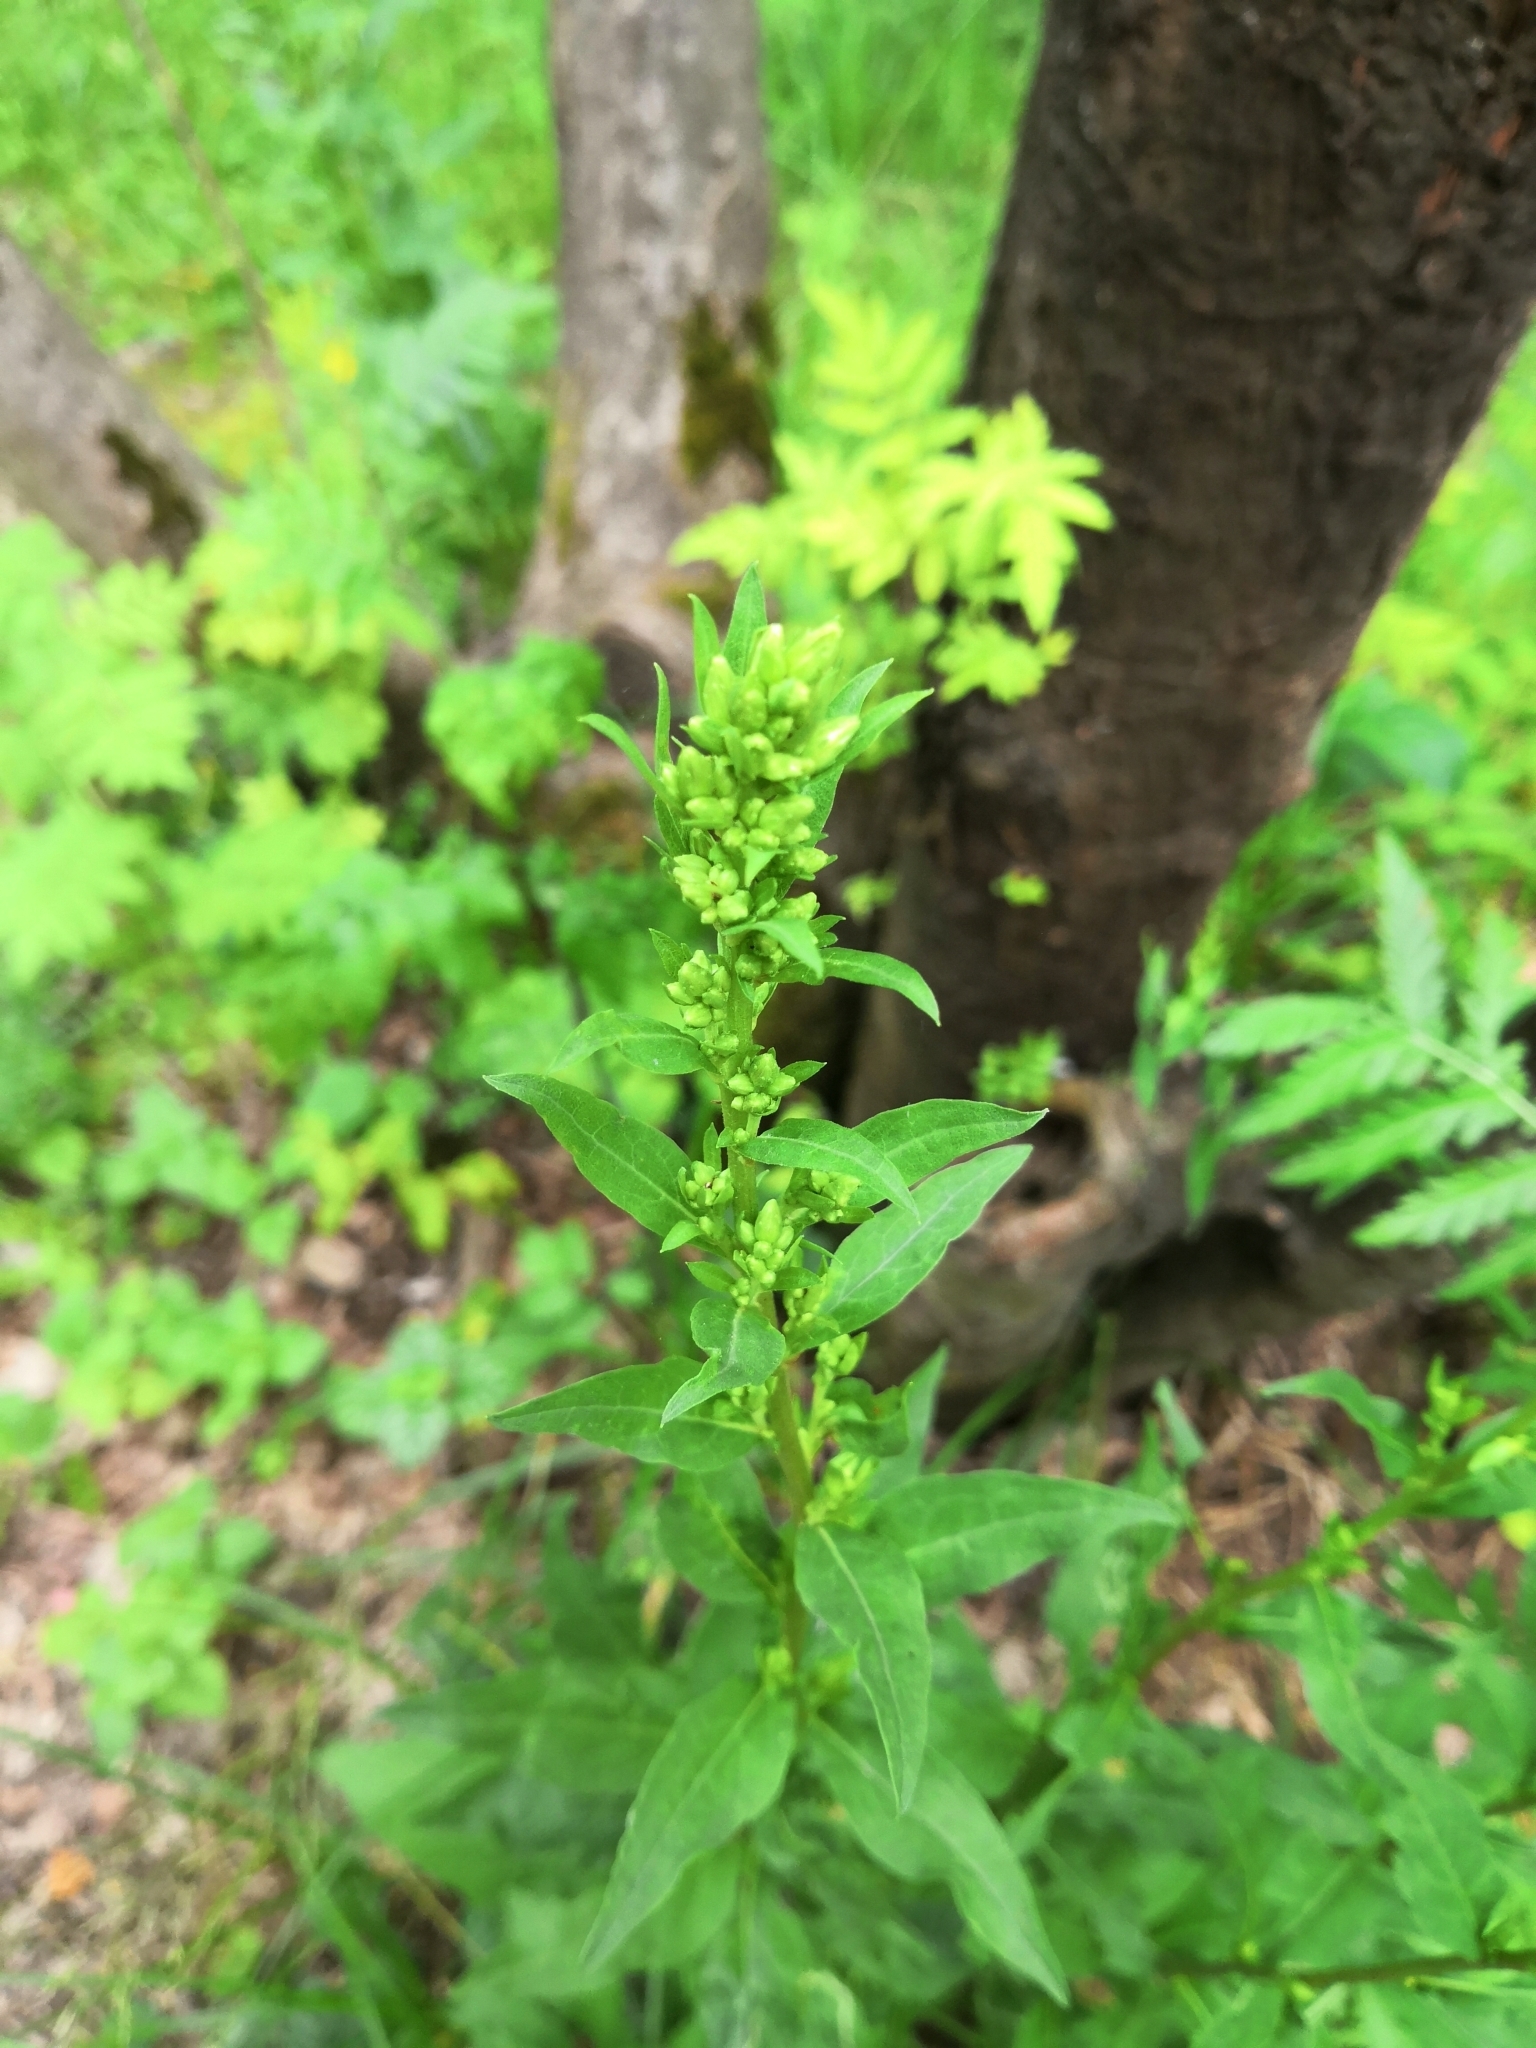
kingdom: Plantae
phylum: Tracheophyta
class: Magnoliopsida
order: Asterales
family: Asteraceae
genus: Solidago
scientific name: Solidago virgaurea
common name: Goldenrod
